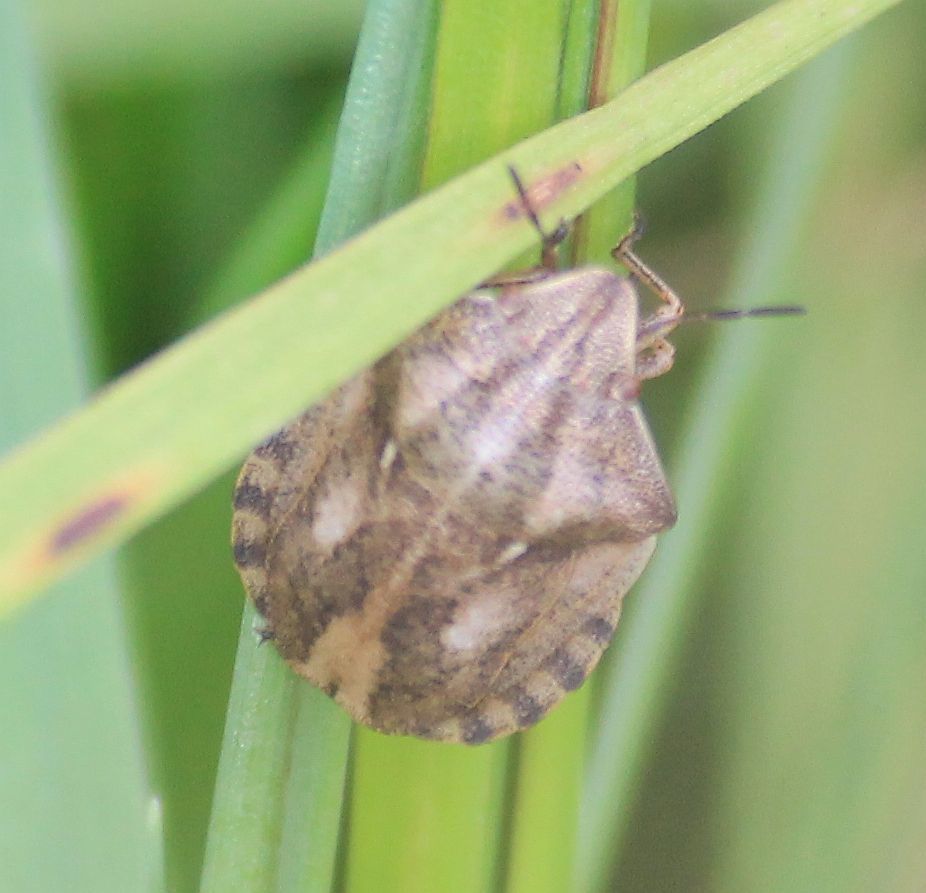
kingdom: Animalia
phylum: Arthropoda
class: Insecta
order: Hemiptera
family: Scutelleridae
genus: Eurygaster
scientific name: Eurygaster testudinaria
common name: Tortoise bug
